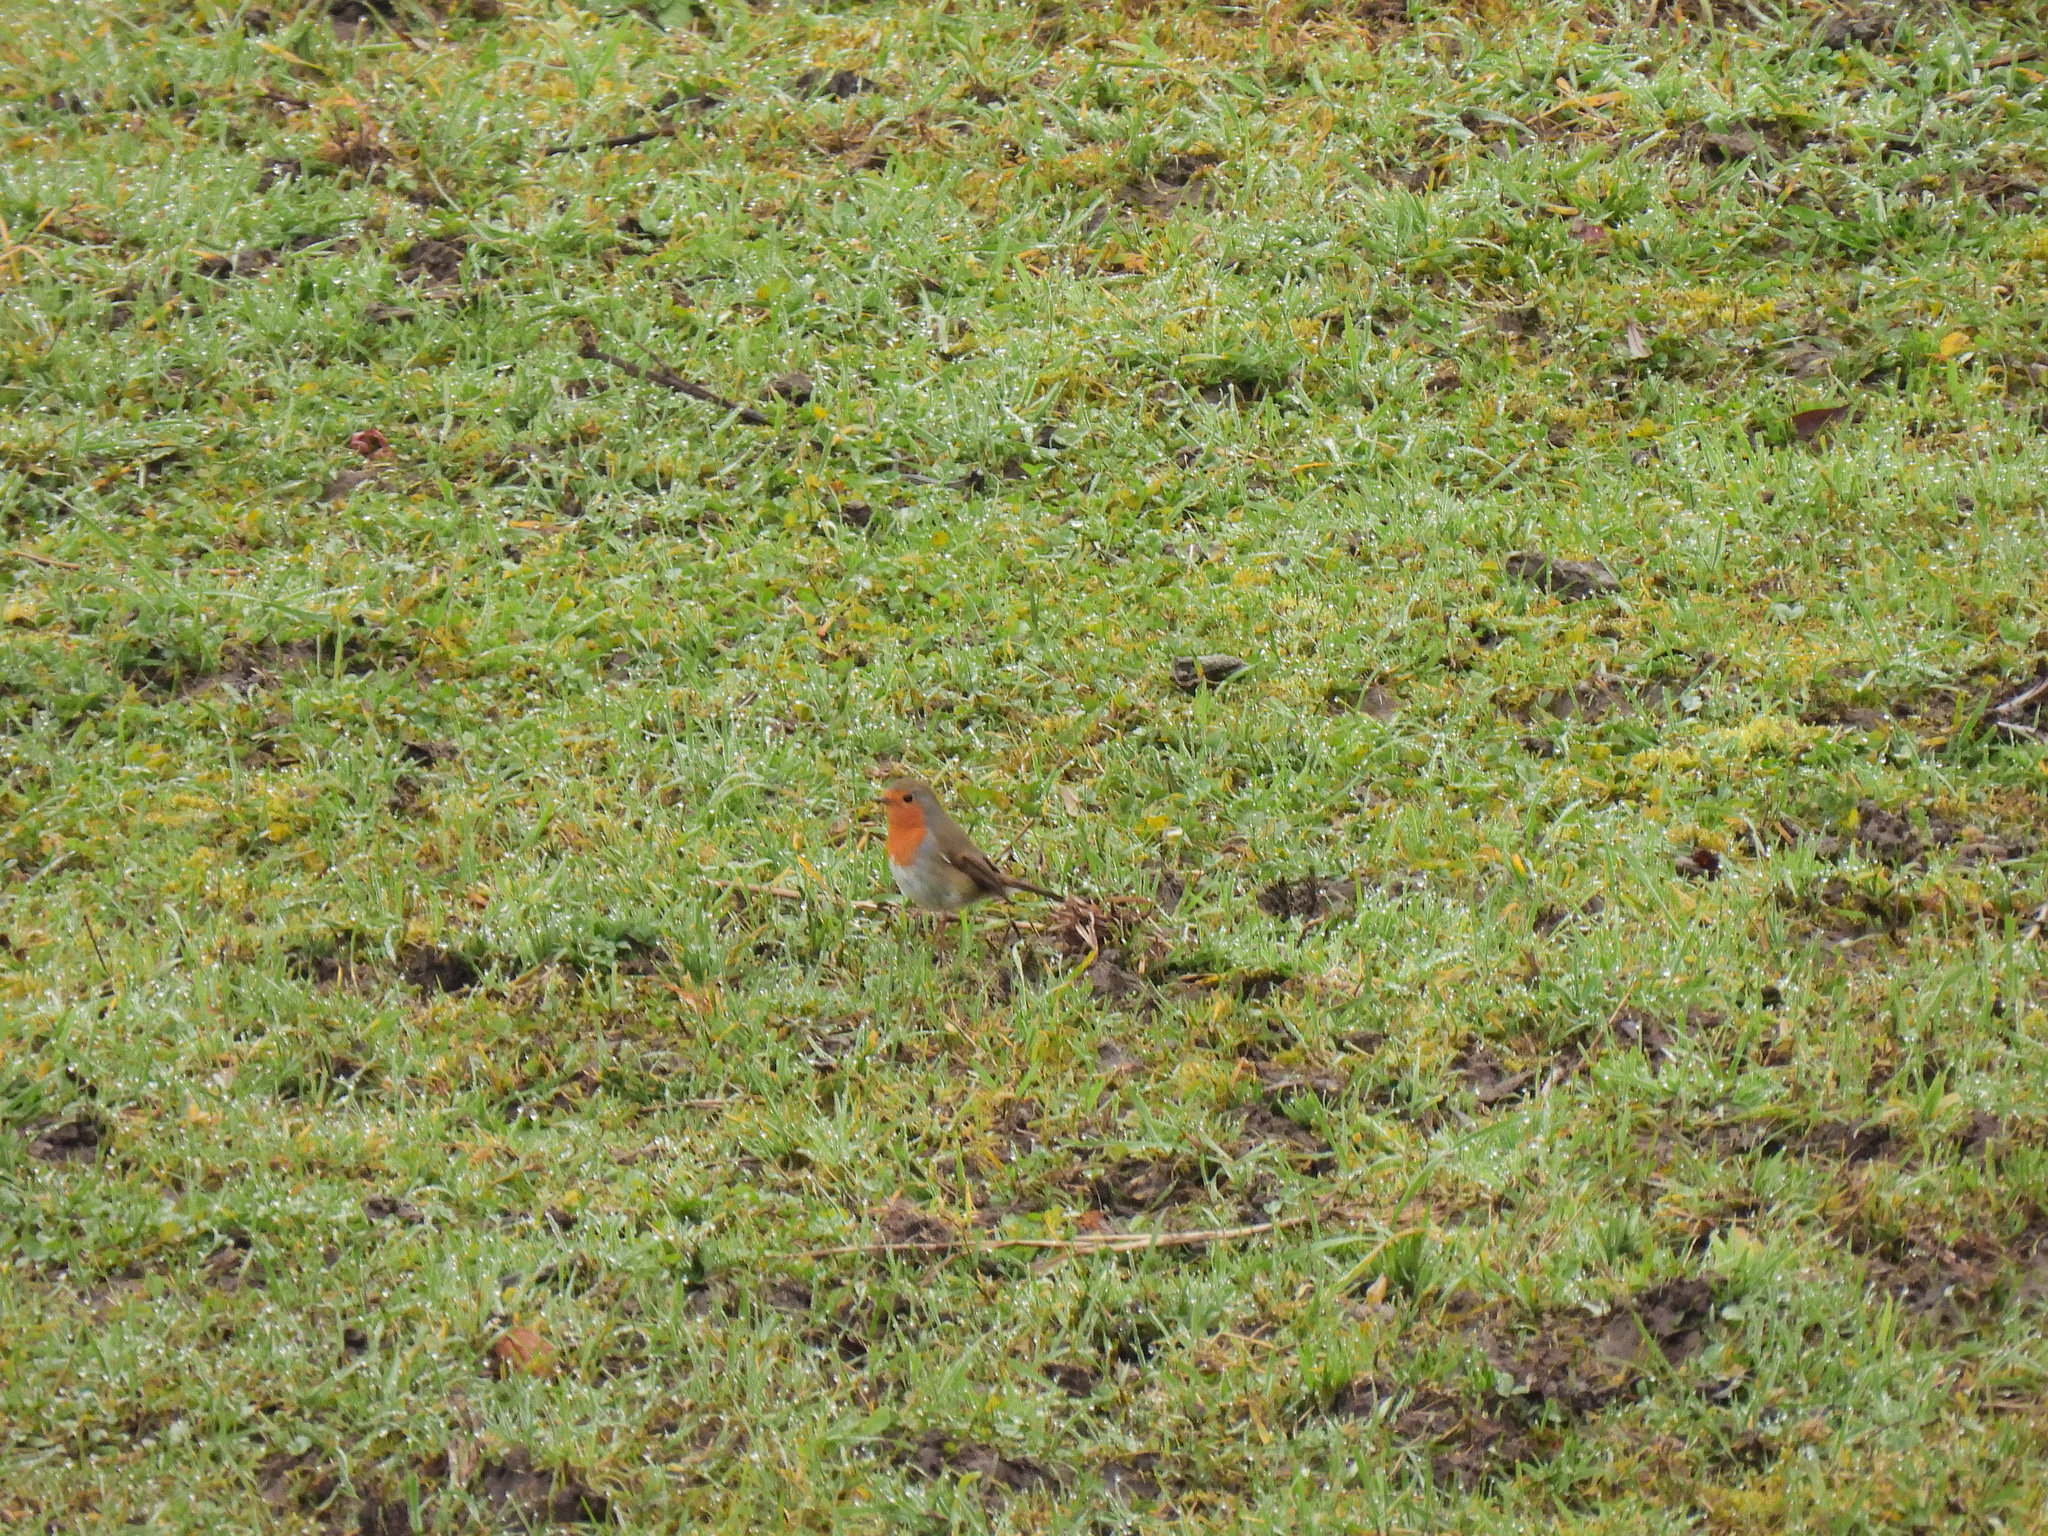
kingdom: Animalia
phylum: Chordata
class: Aves
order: Passeriformes
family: Muscicapidae
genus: Erithacus
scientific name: Erithacus rubecula
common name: European robin
